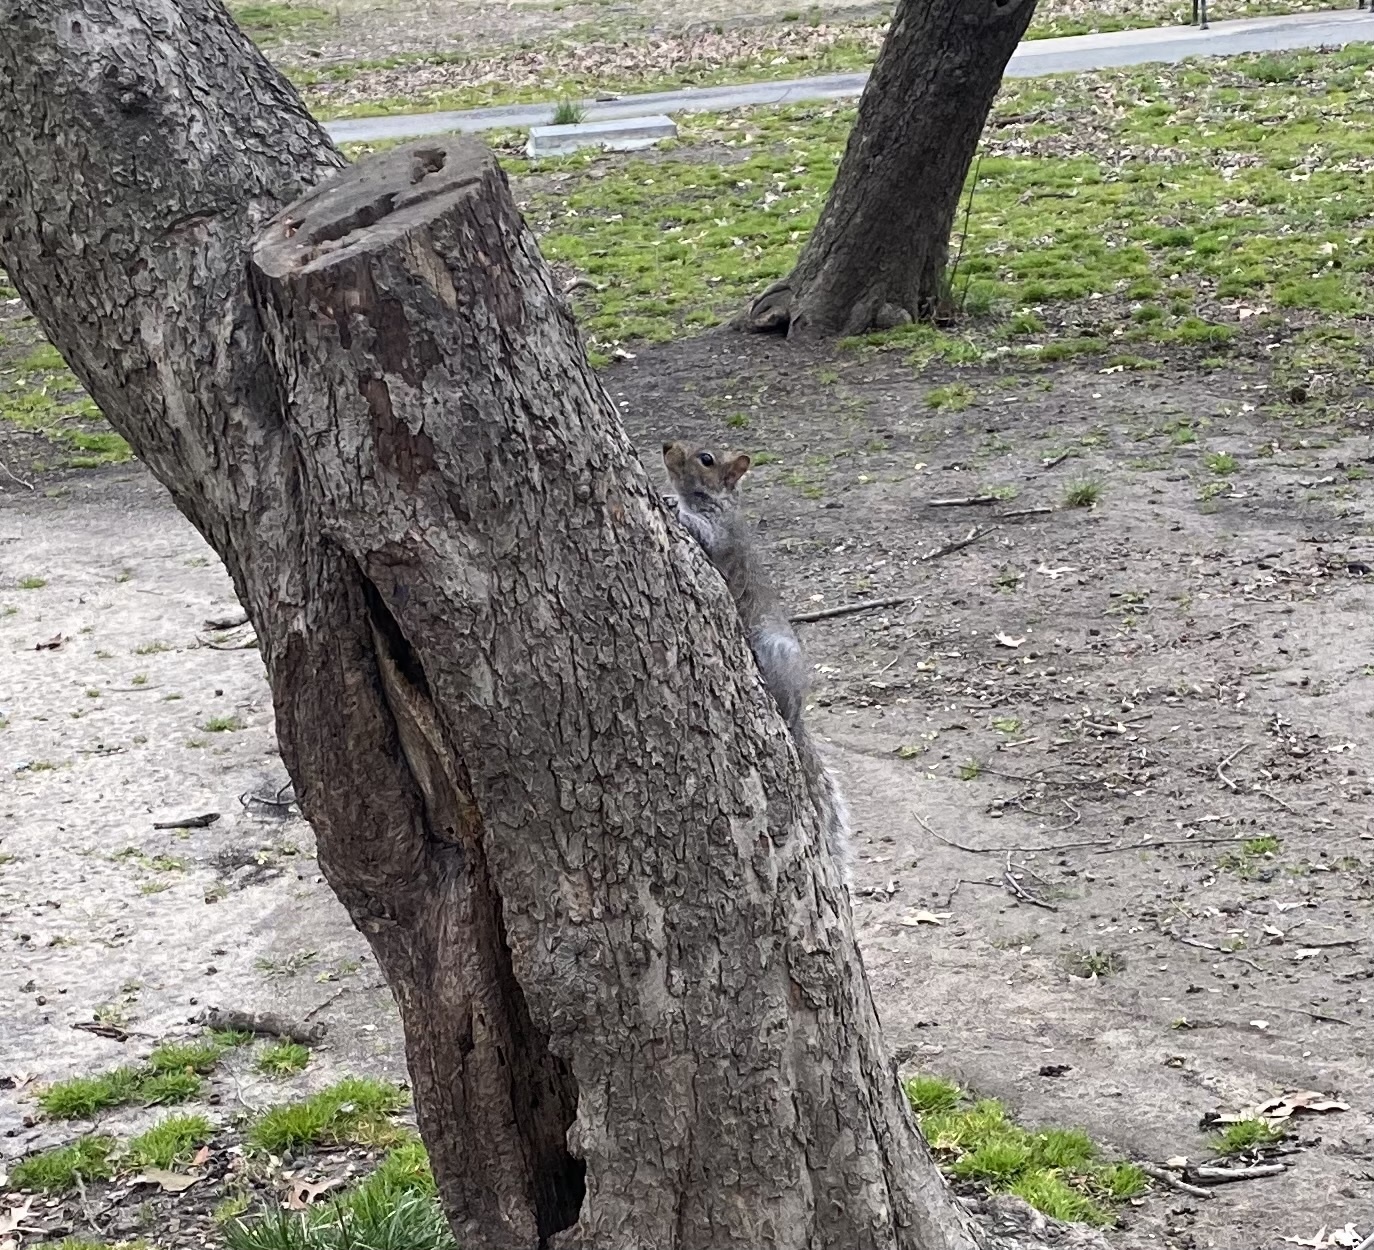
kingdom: Animalia
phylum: Chordata
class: Mammalia
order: Rodentia
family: Sciuridae
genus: Sciurus
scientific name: Sciurus carolinensis
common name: Eastern gray squirrel
